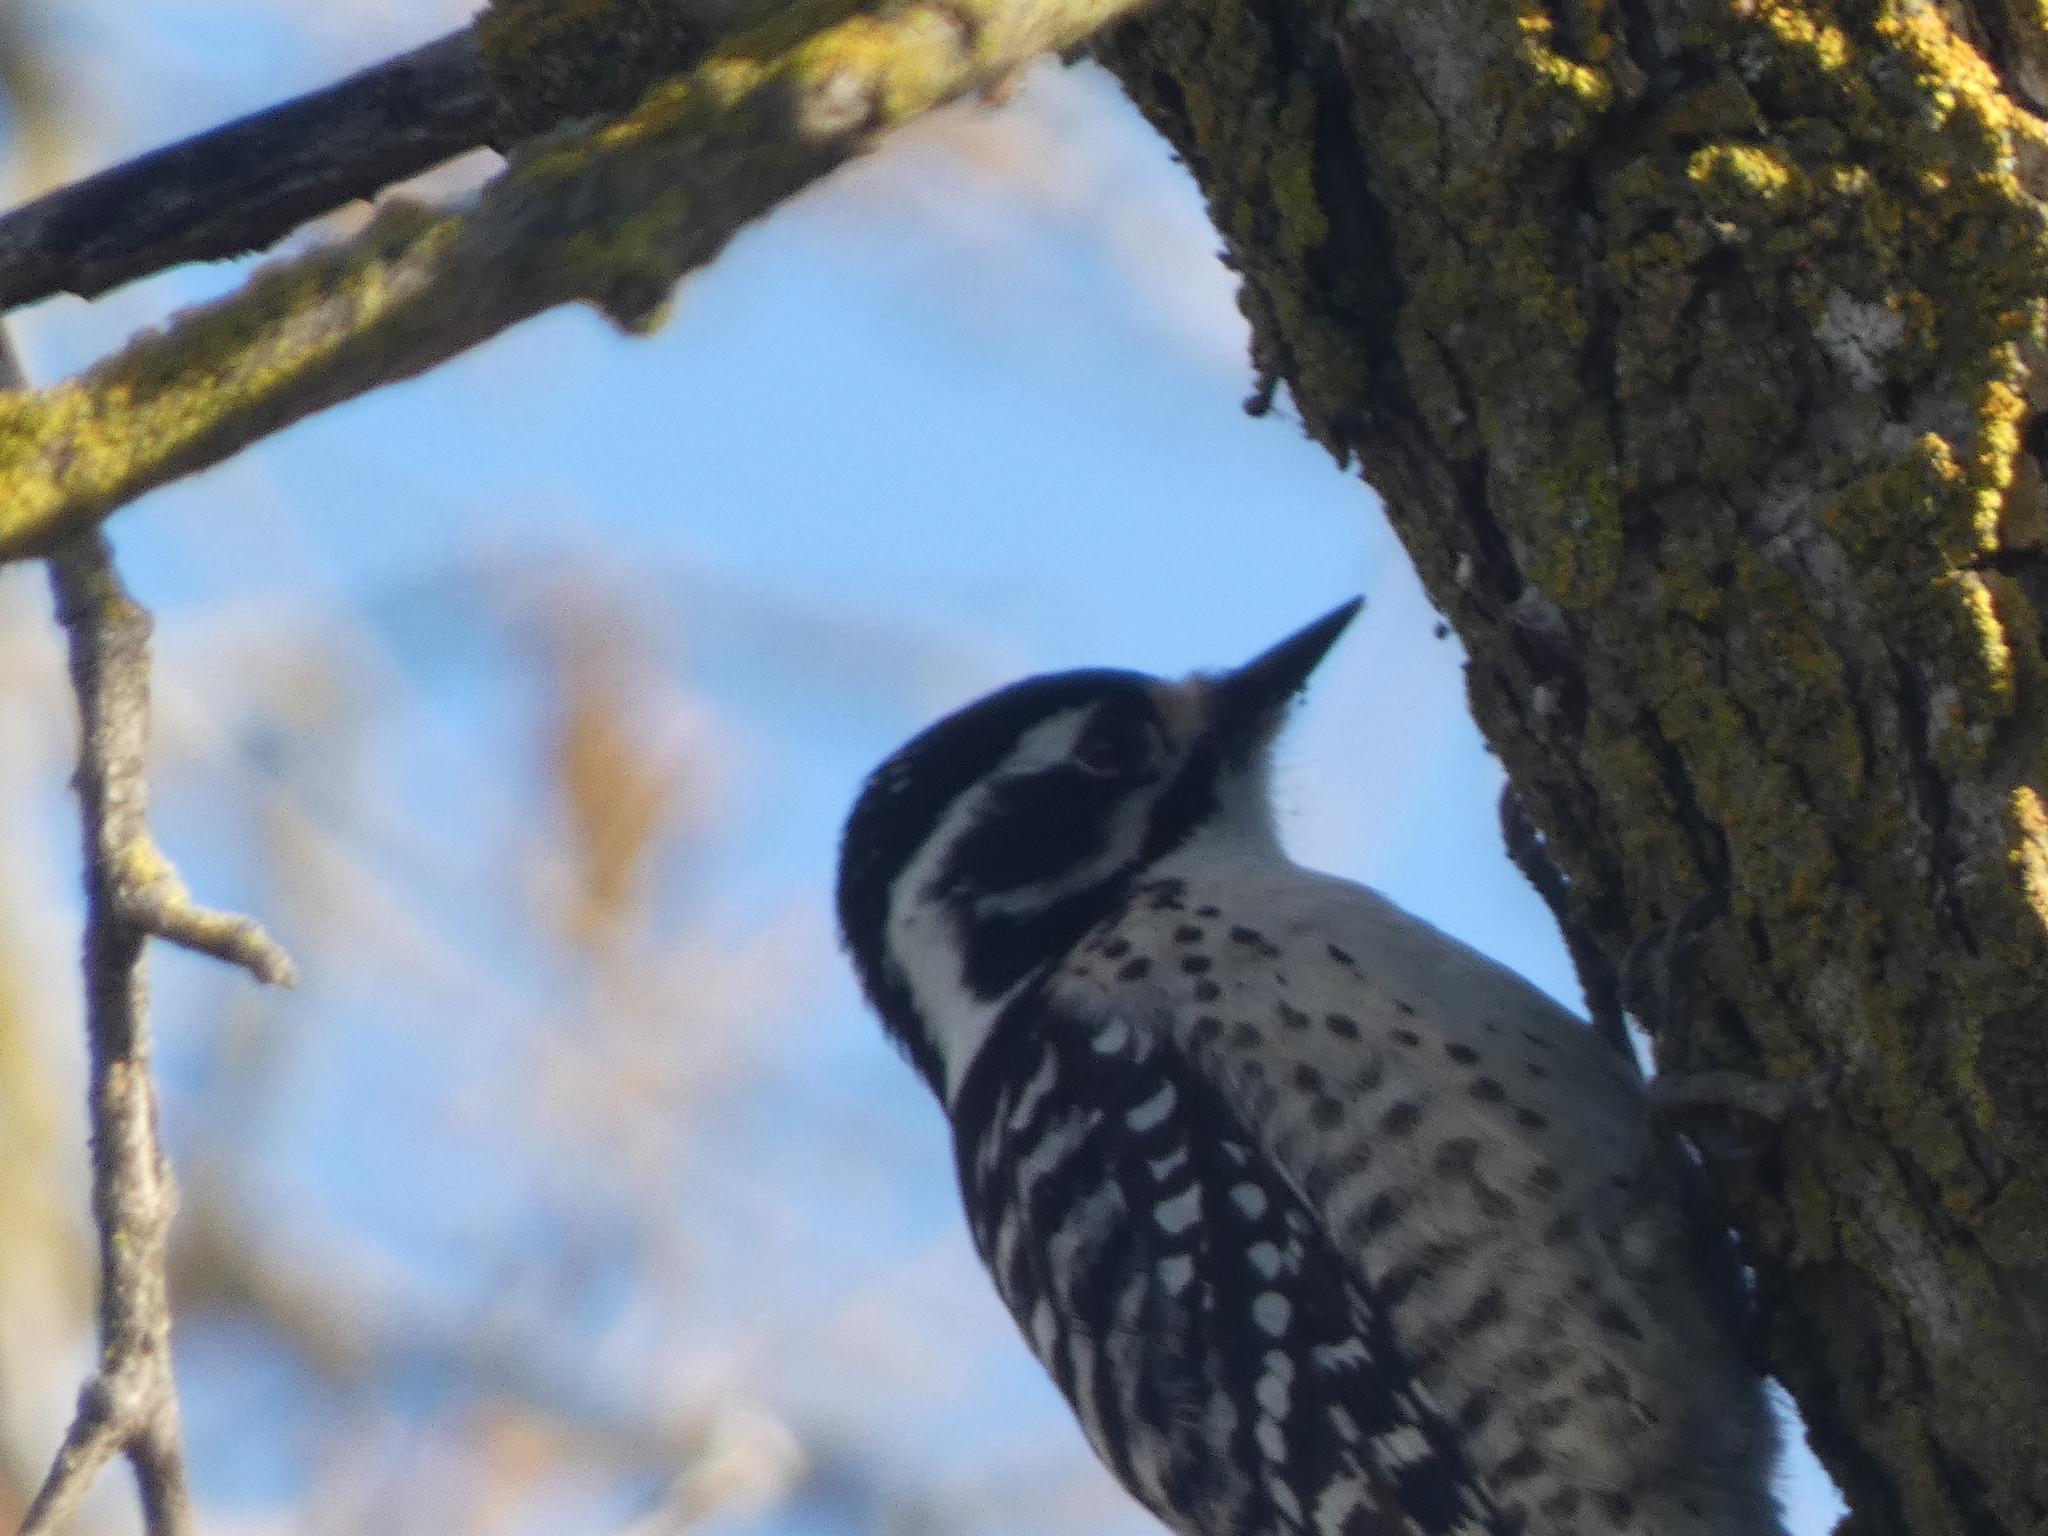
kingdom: Animalia
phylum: Chordata
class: Aves
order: Piciformes
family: Picidae
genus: Dryobates
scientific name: Dryobates nuttallii
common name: Nuttall's woodpecker
